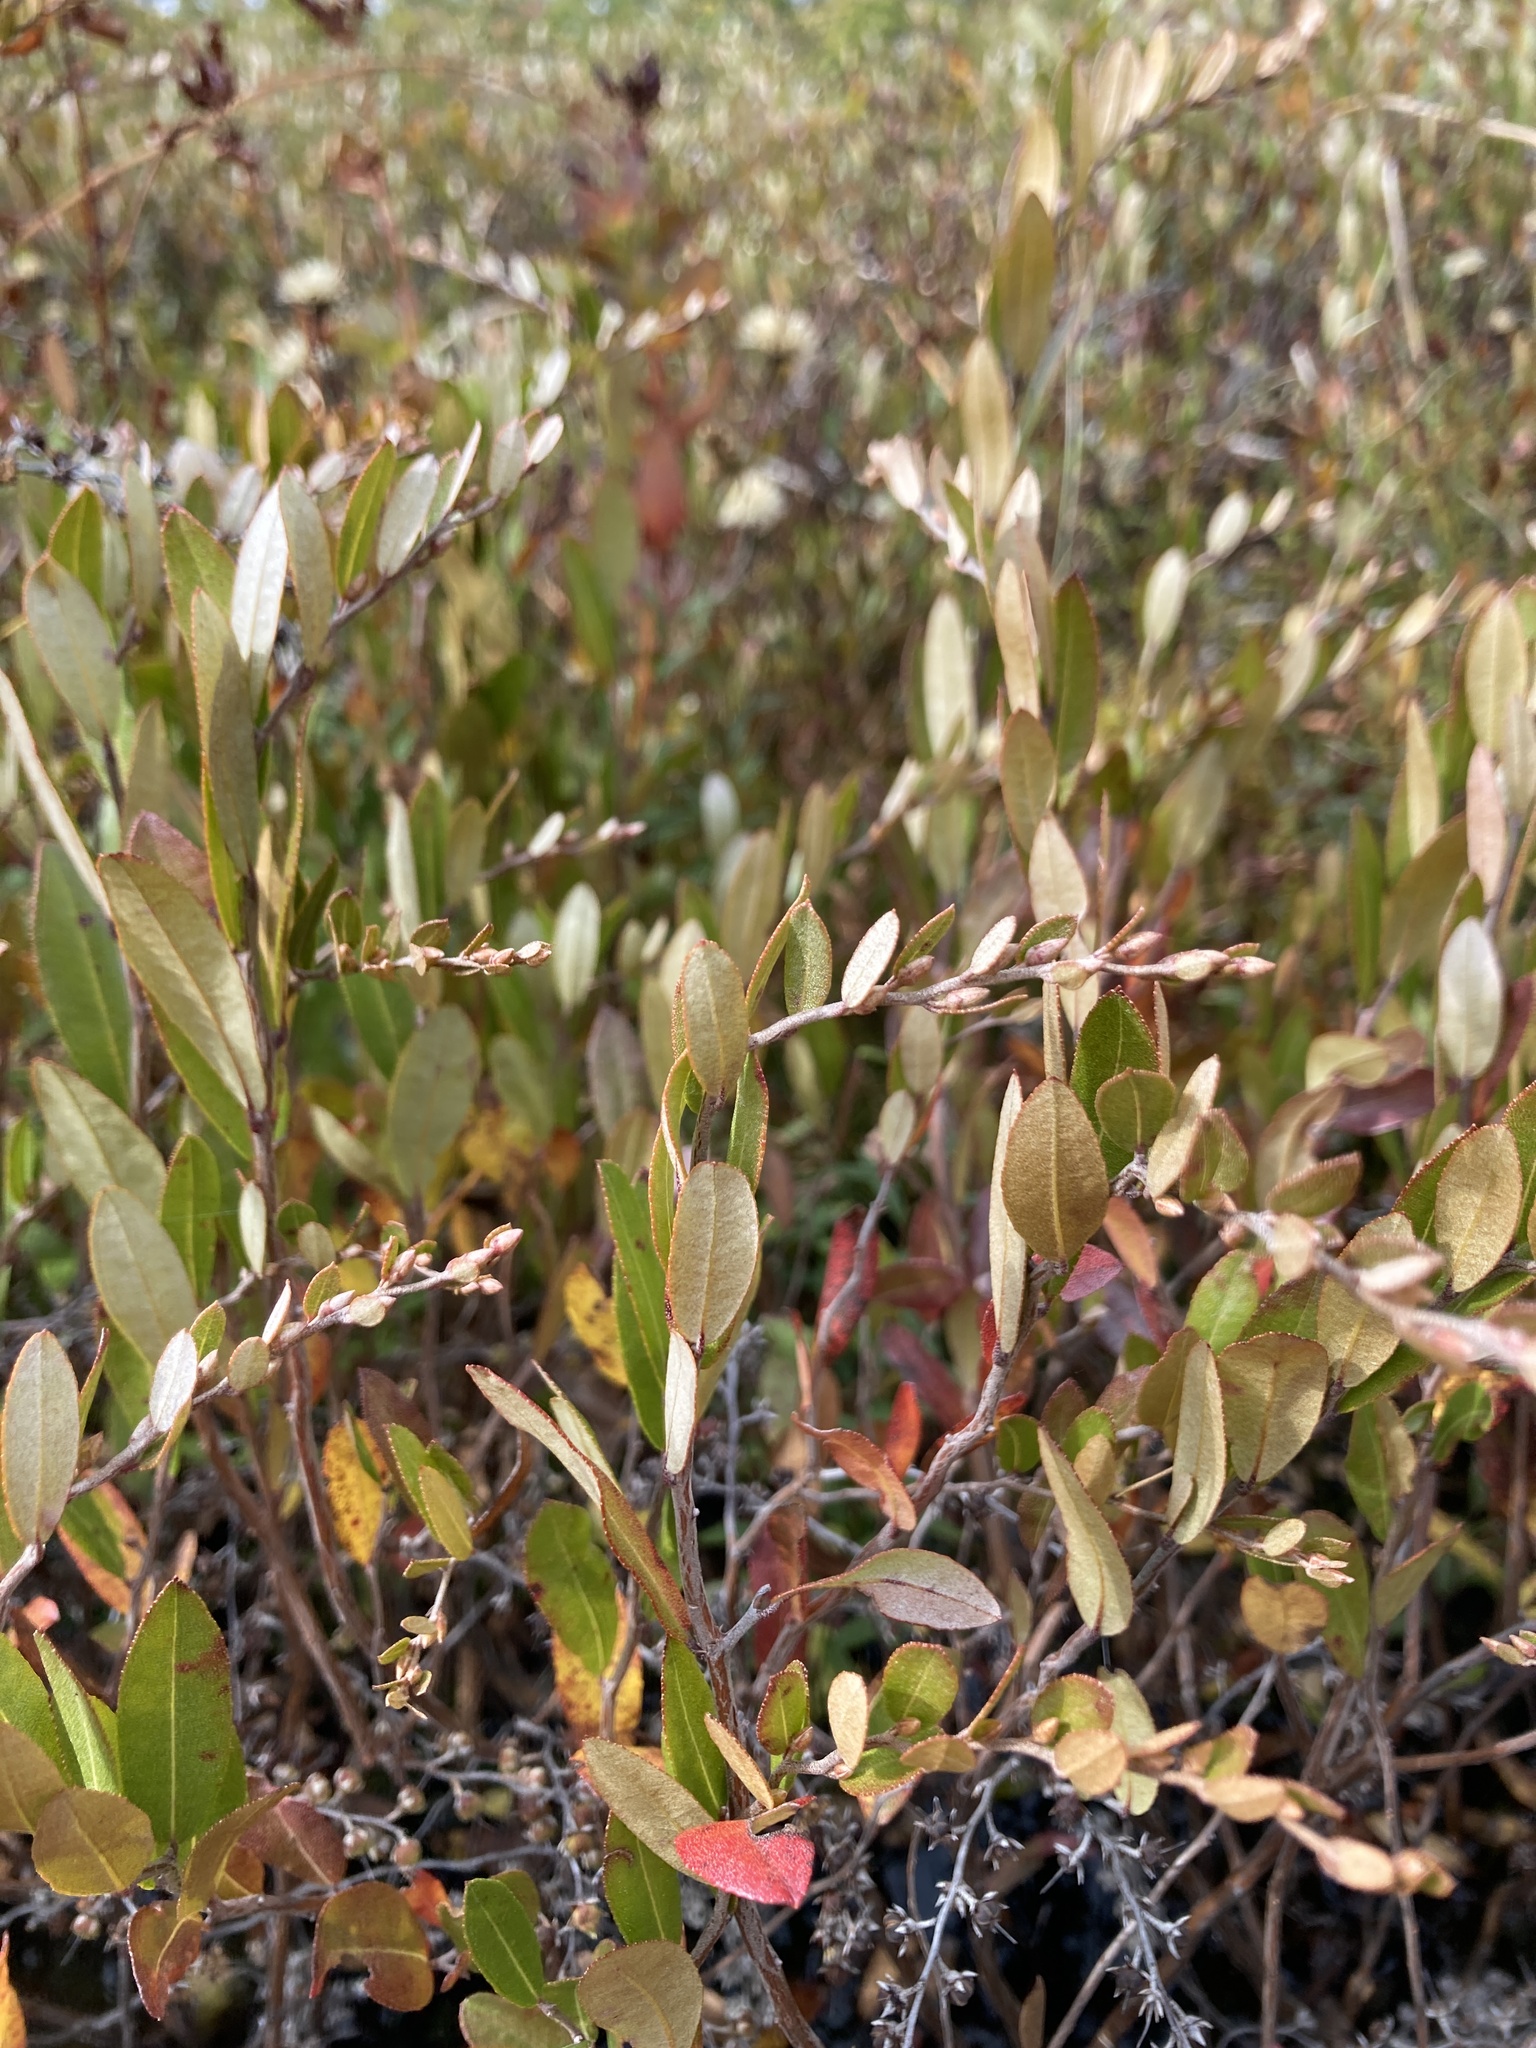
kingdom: Plantae
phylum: Tracheophyta
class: Magnoliopsida
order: Ericales
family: Ericaceae
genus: Chamaedaphne
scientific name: Chamaedaphne calyculata
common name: Leatherleaf
